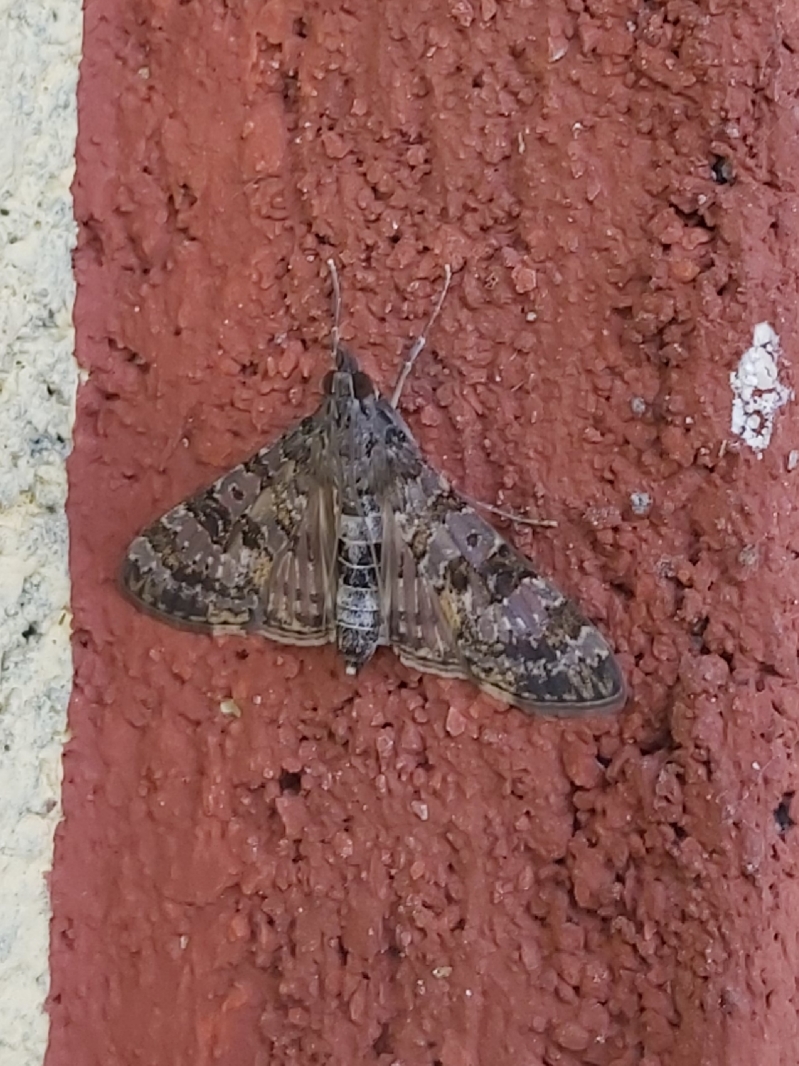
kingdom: Animalia
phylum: Arthropoda
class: Insecta
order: Lepidoptera
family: Crambidae
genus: Dysallacta
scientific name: Dysallacta negatalis
